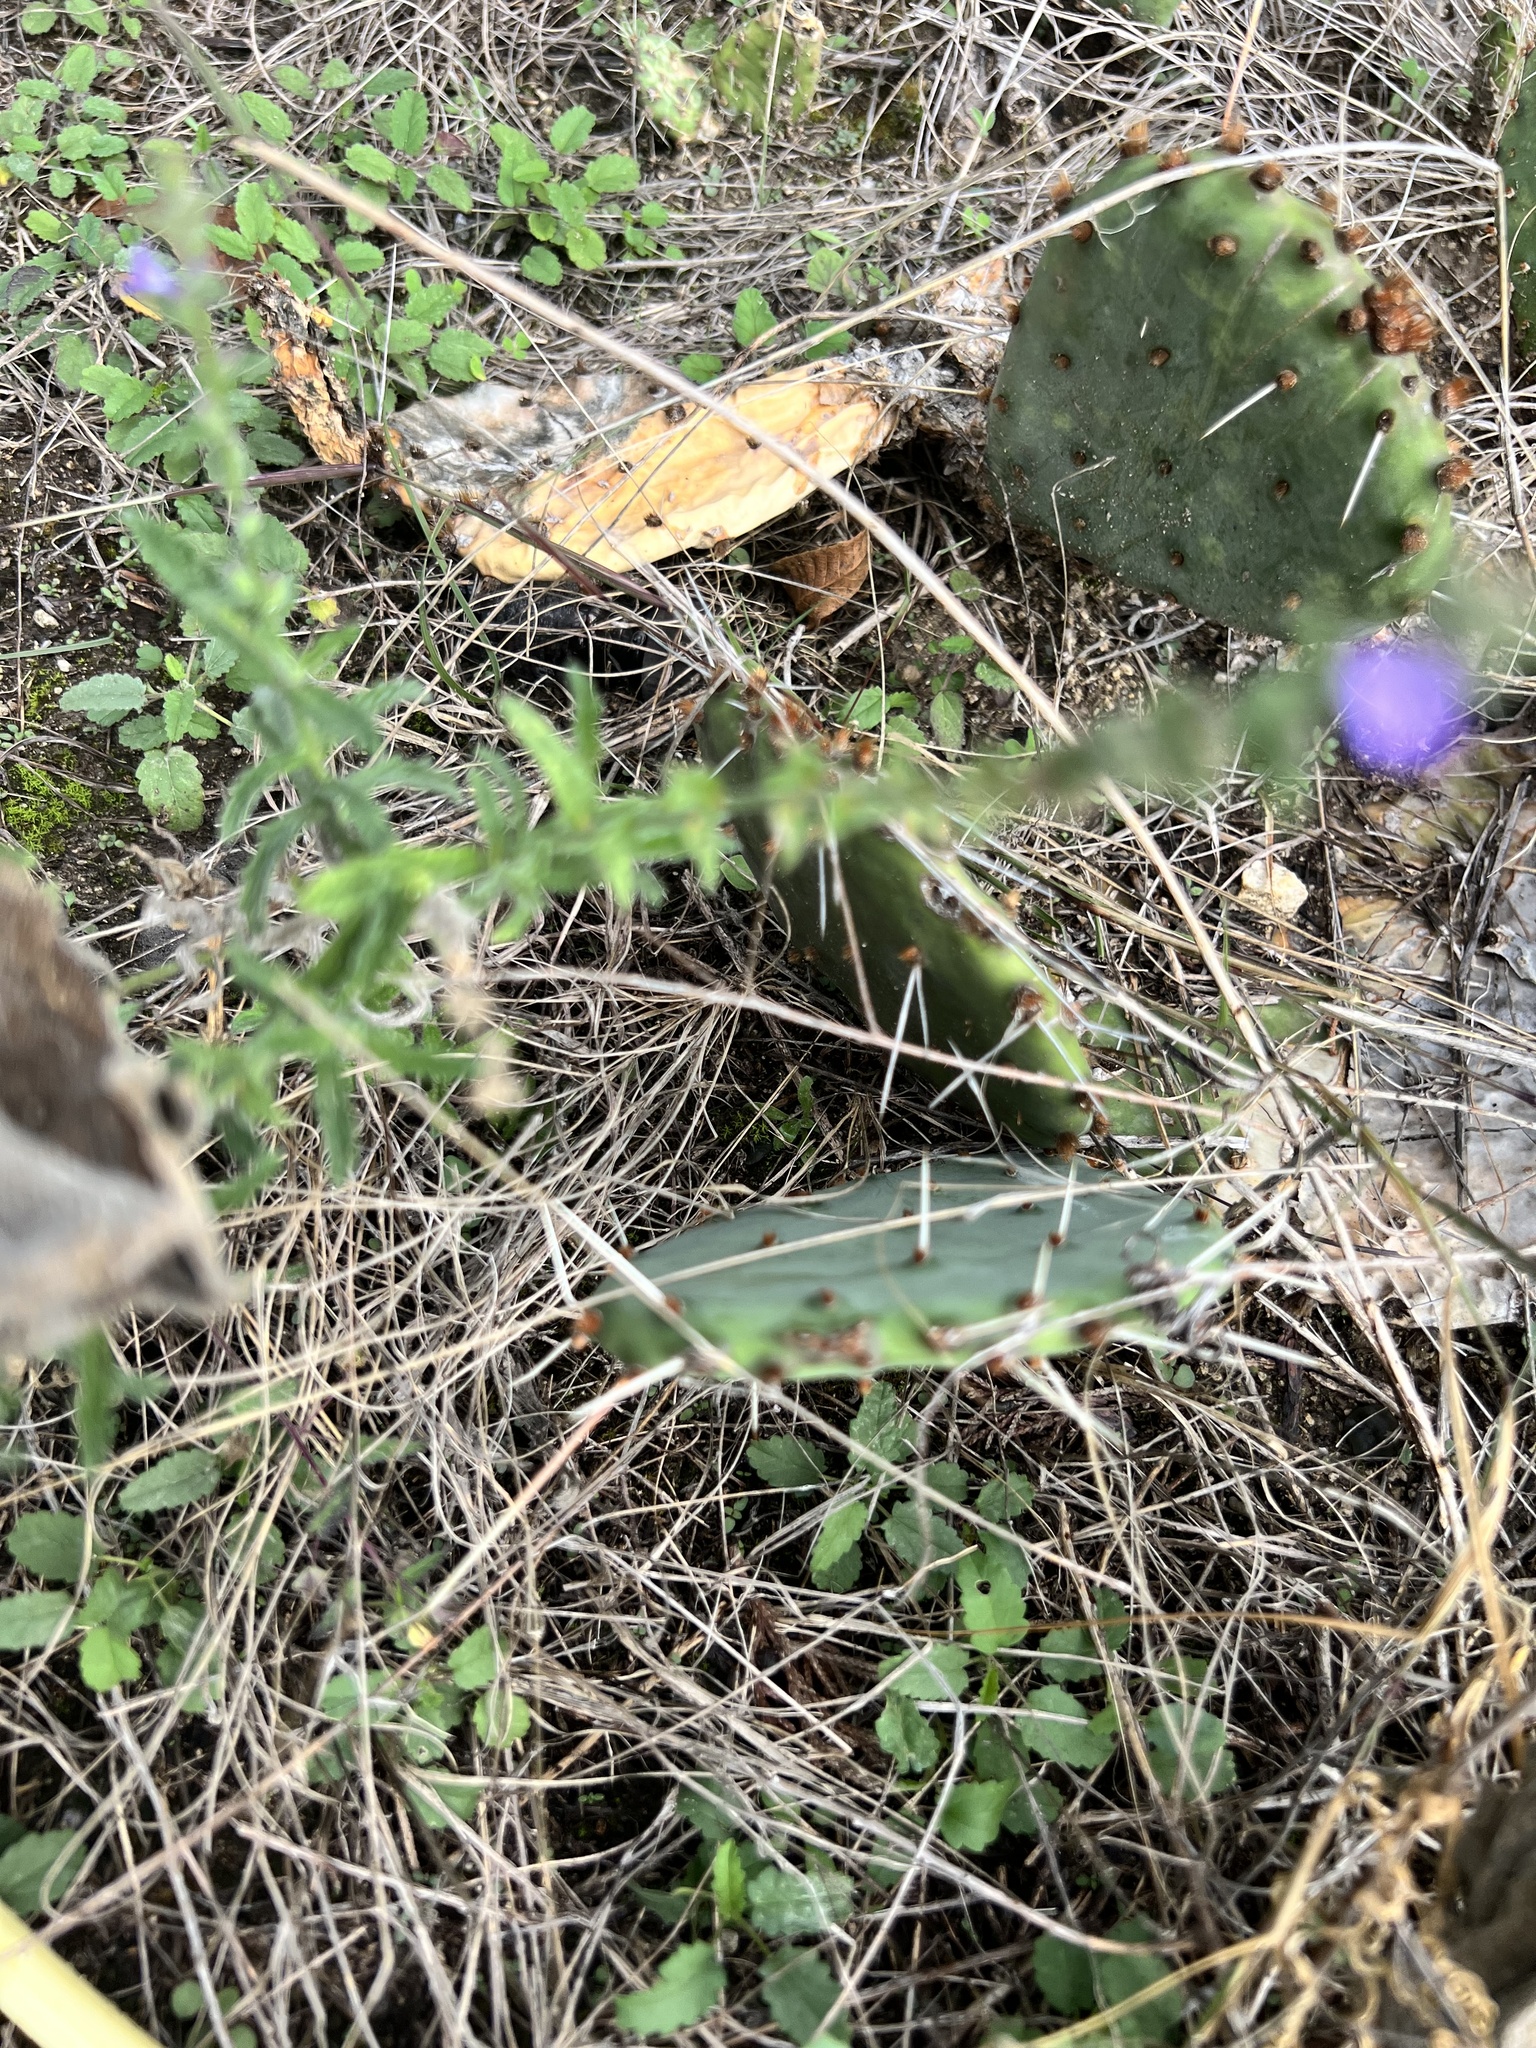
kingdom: Plantae
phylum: Tracheophyta
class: Magnoliopsida
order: Lamiales
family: Verbenaceae
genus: Verbena
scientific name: Verbena canescens
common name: Gray vervain
